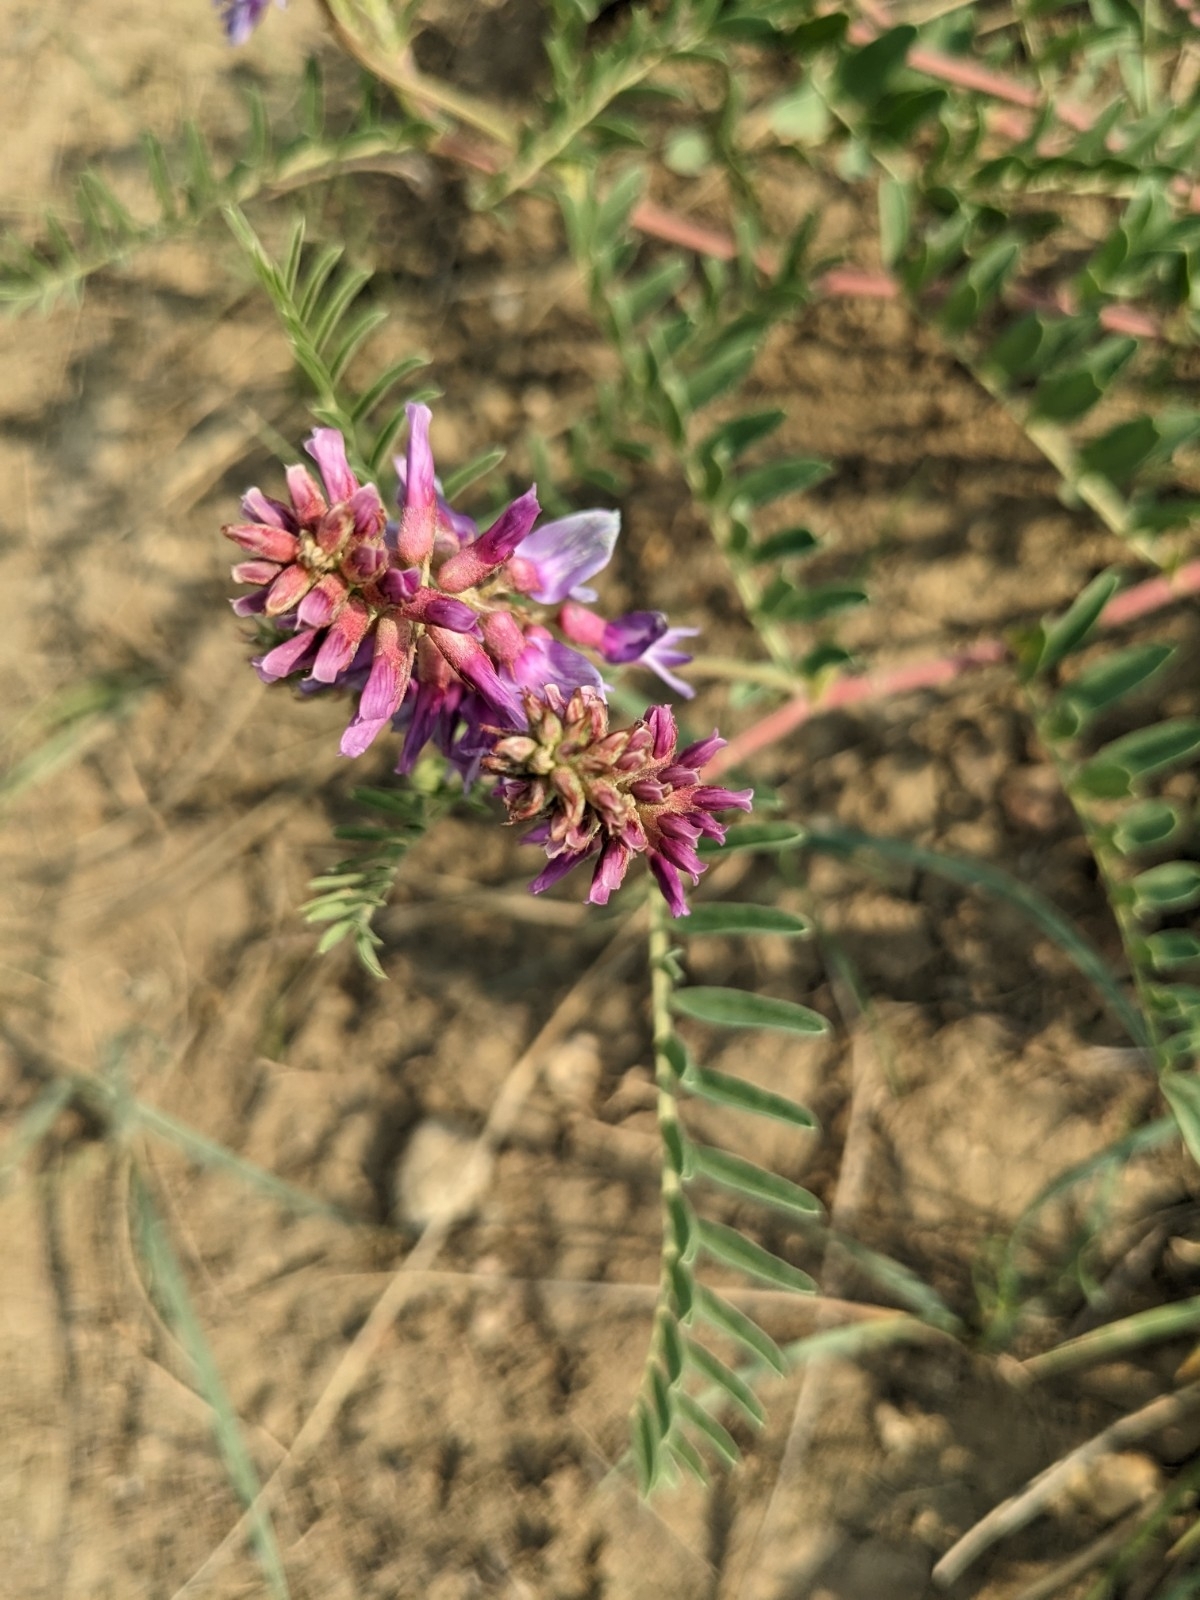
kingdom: Plantae
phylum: Tracheophyta
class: Magnoliopsida
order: Fabales
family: Fabaceae
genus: Astragalus
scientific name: Astragalus bisulcatus
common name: Two-groove milk-vetch
